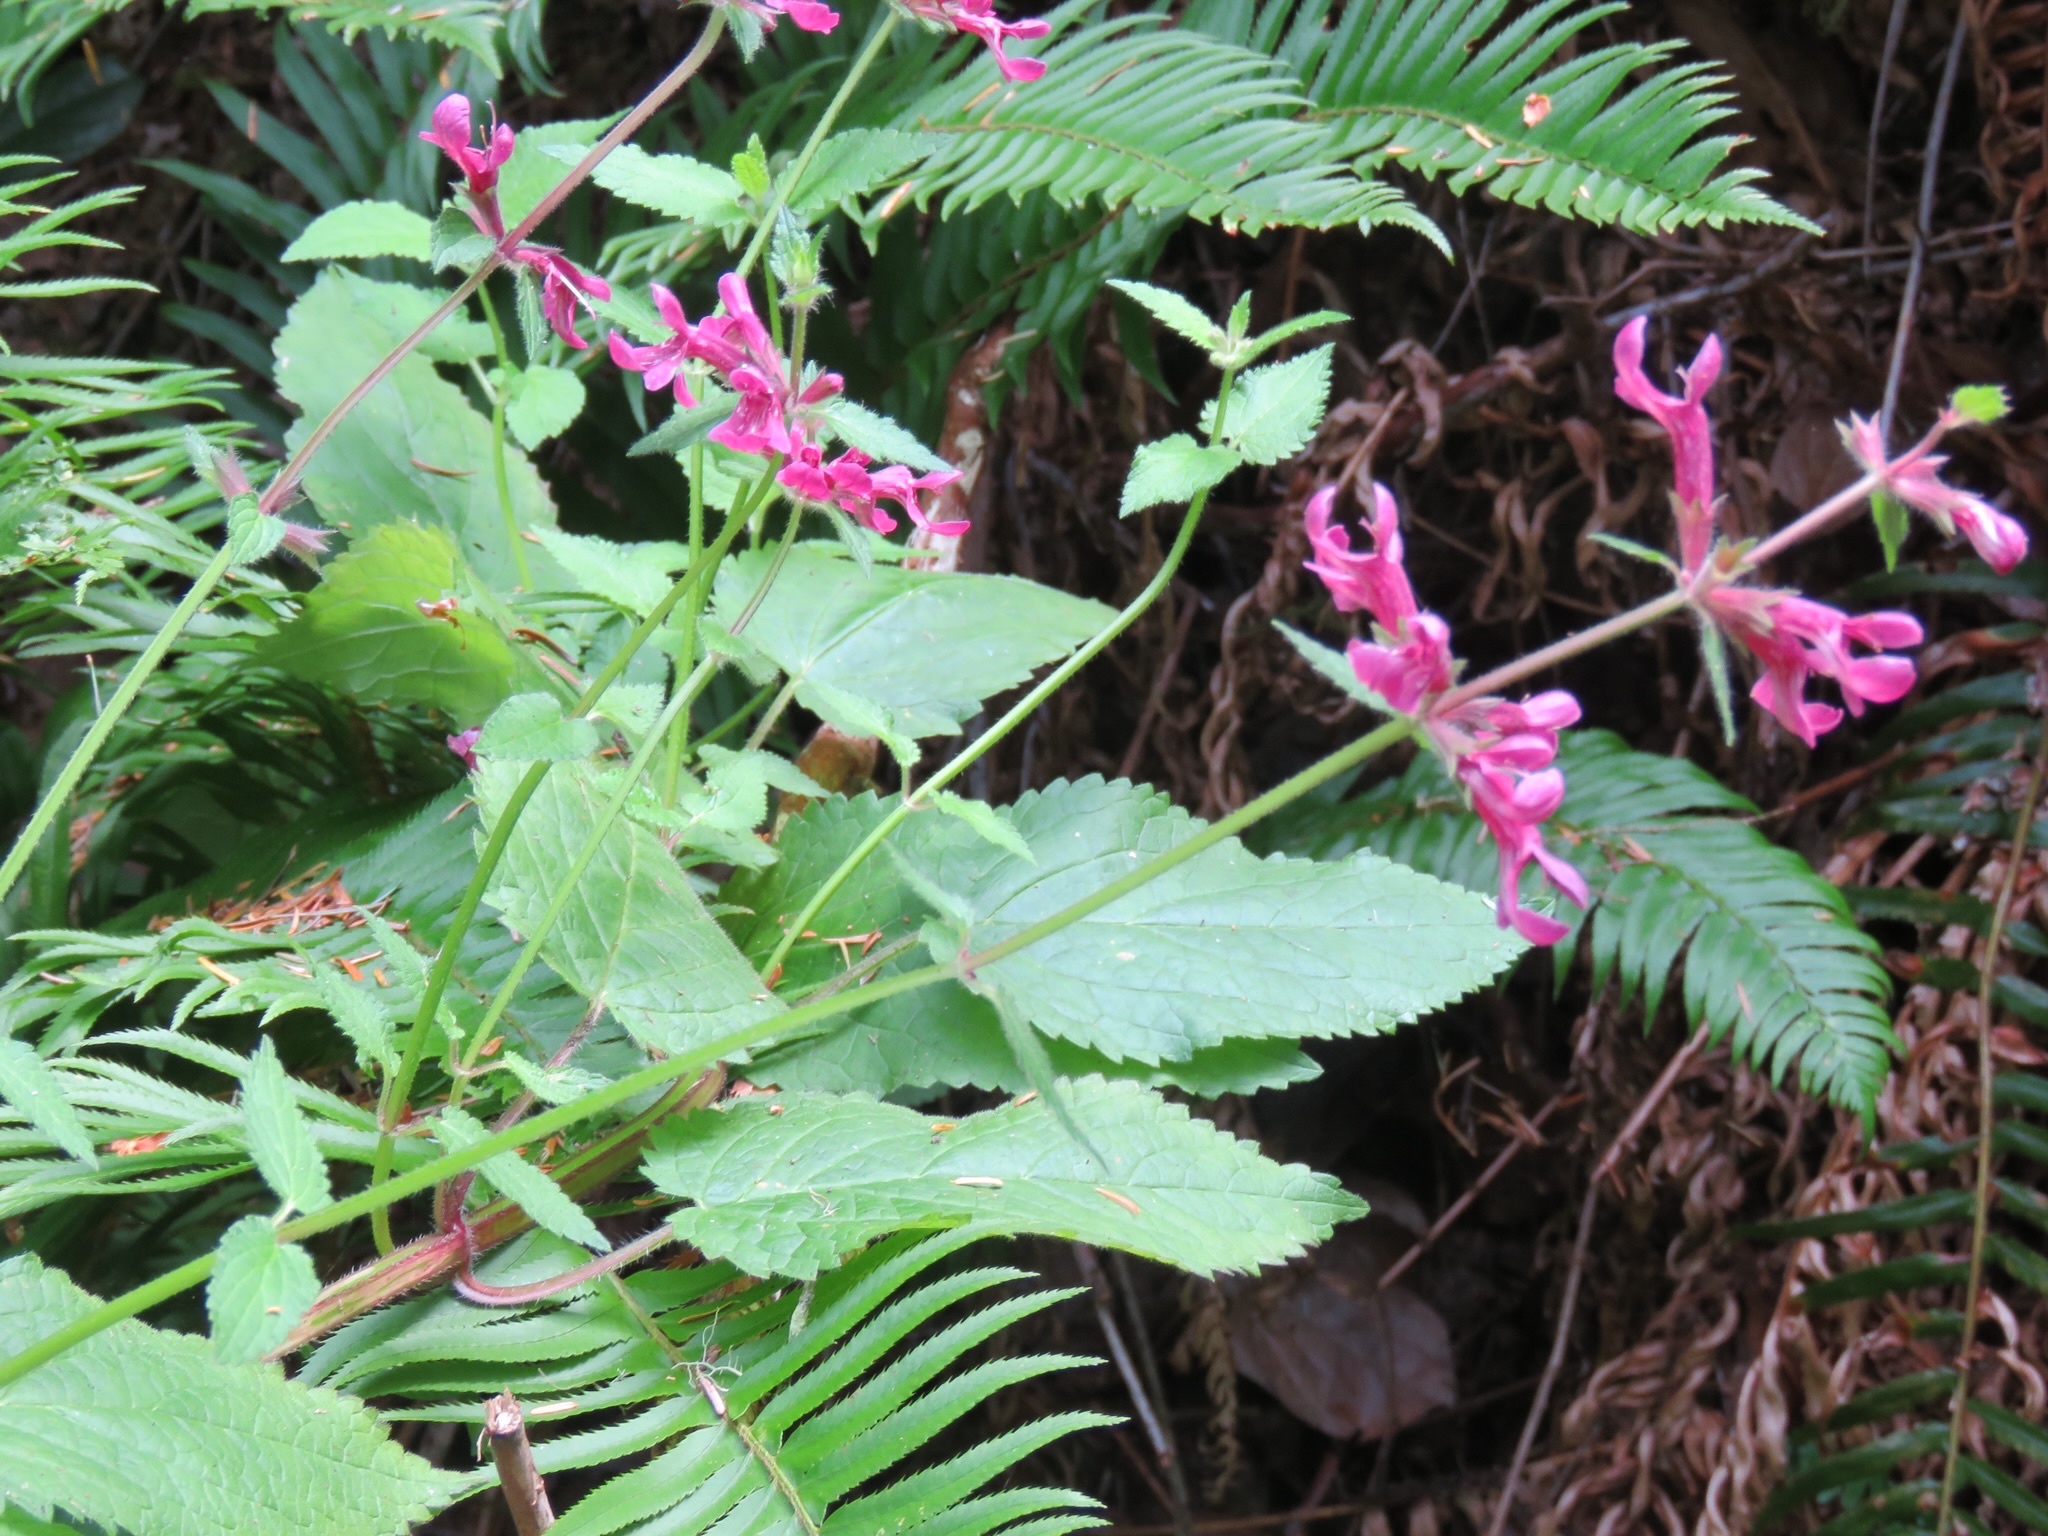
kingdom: Plantae
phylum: Tracheophyta
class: Magnoliopsida
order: Lamiales
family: Lamiaceae
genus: Stachys
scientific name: Stachys chamissonis
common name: Coastal hedge-nettle
